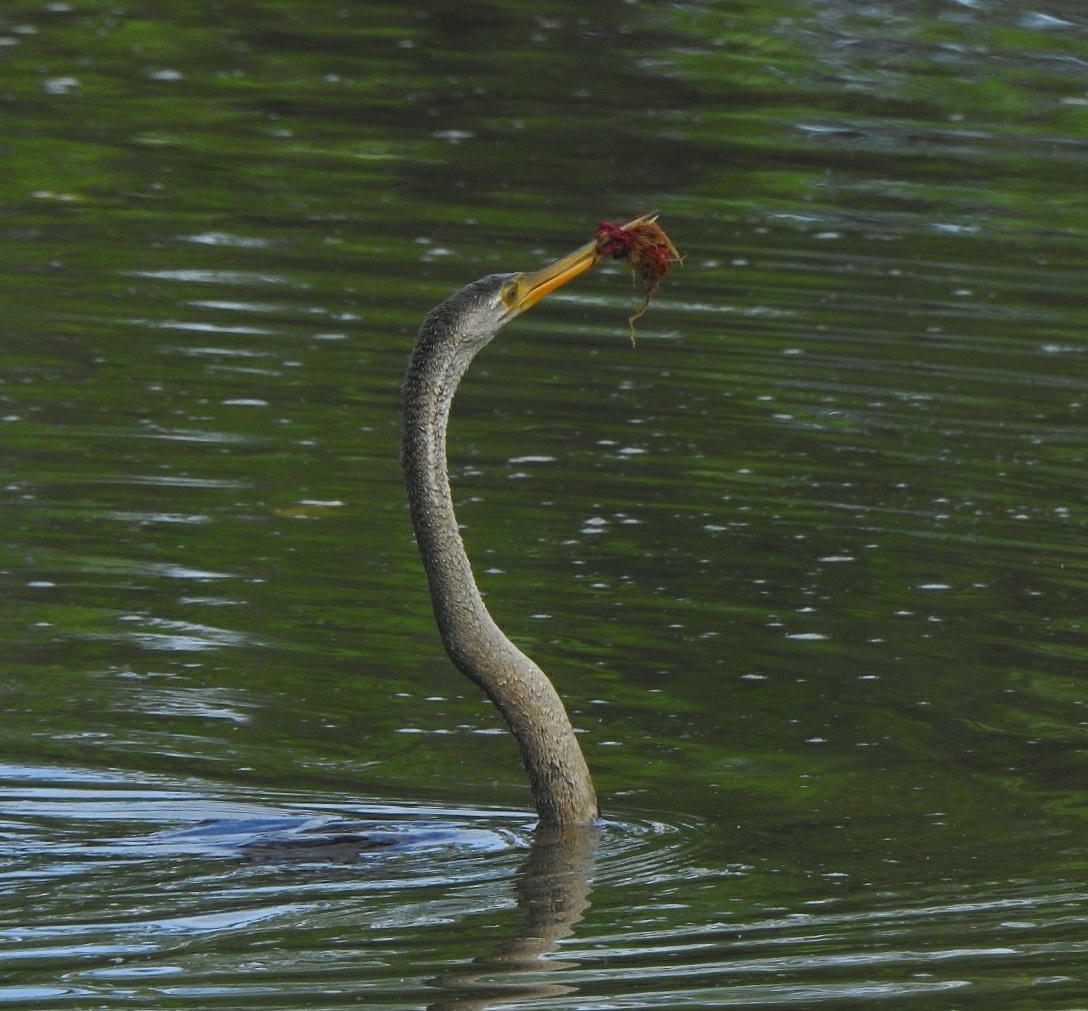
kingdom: Animalia
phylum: Chordata
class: Aves
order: Suliformes
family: Anhingidae
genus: Anhinga
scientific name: Anhinga melanogaster
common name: Oriental darter
